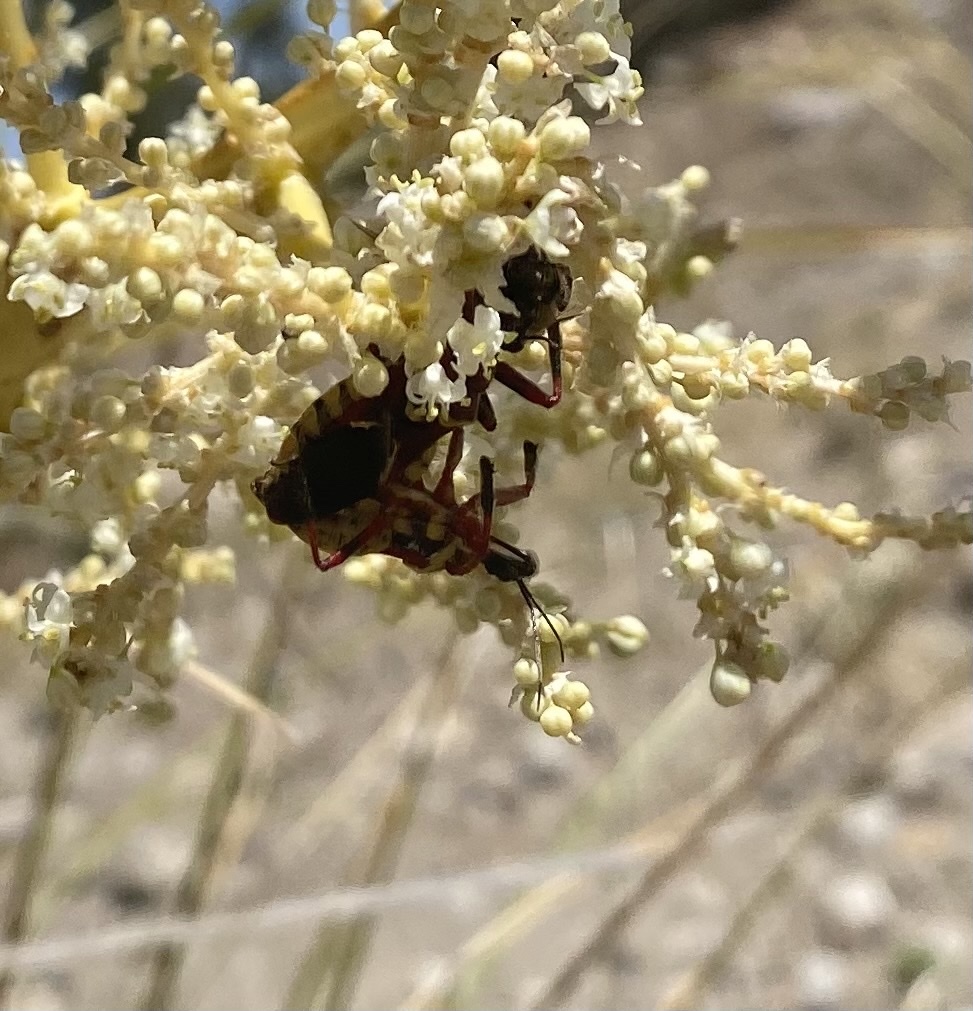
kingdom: Animalia
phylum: Arthropoda
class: Insecta
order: Hemiptera
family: Reduviidae
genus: Apiomerus
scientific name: Apiomerus flaviventris
